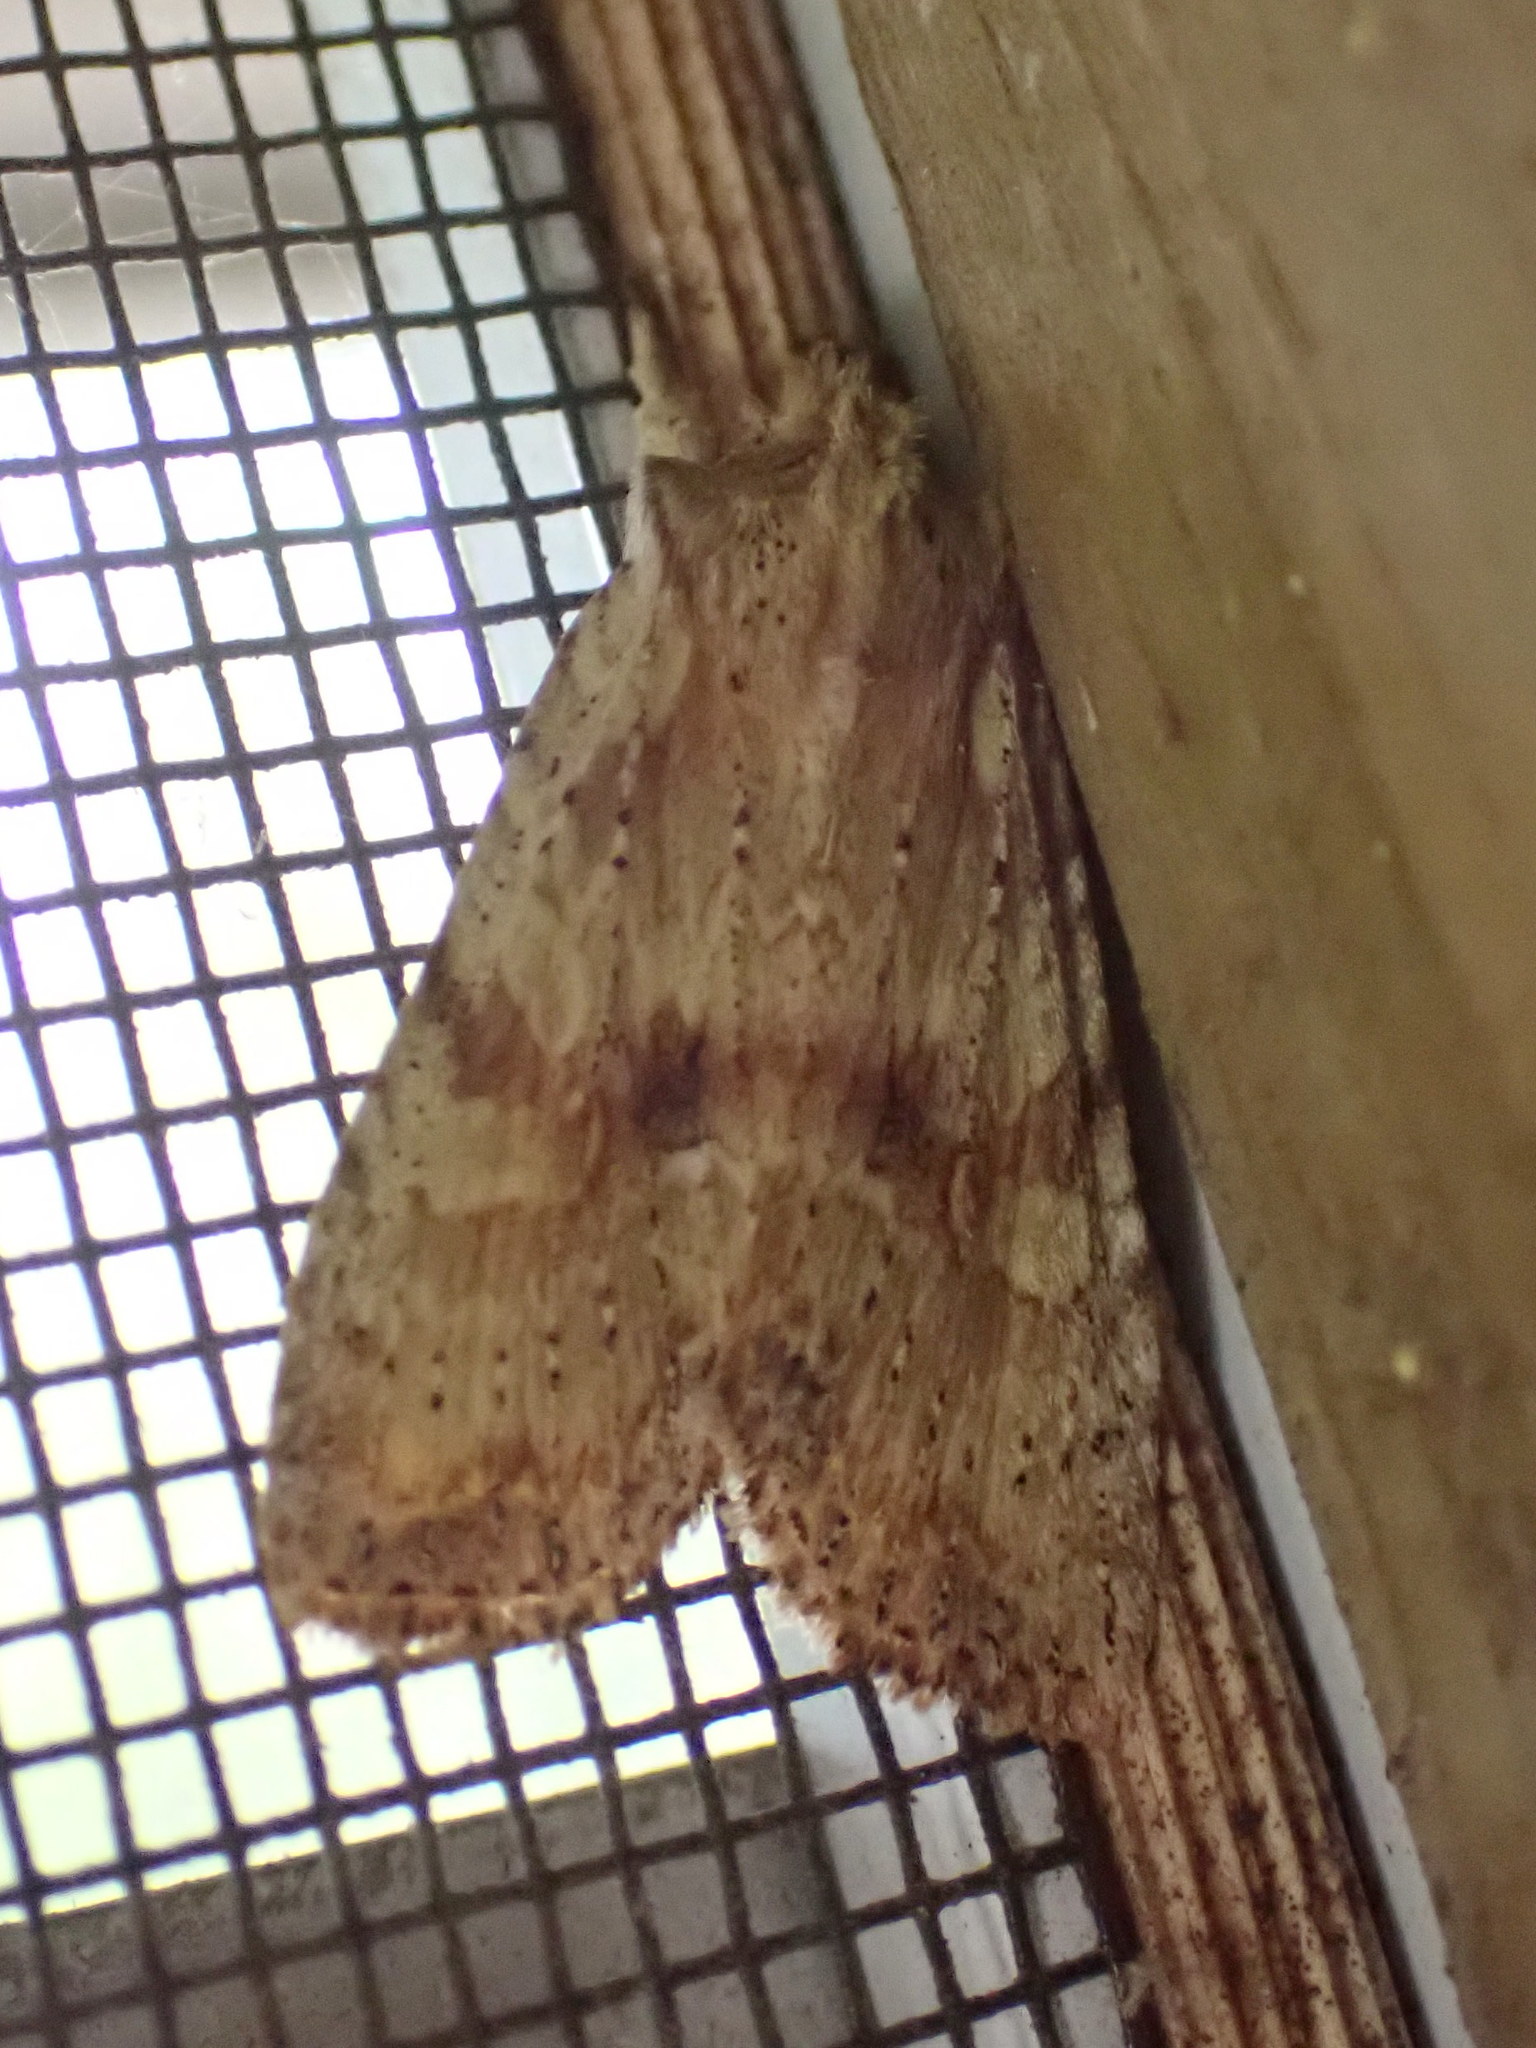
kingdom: Animalia
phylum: Arthropoda
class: Insecta
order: Lepidoptera
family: Noctuidae
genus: Lithophane
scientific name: Lithophane innominata
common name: Nameless pinion moth
